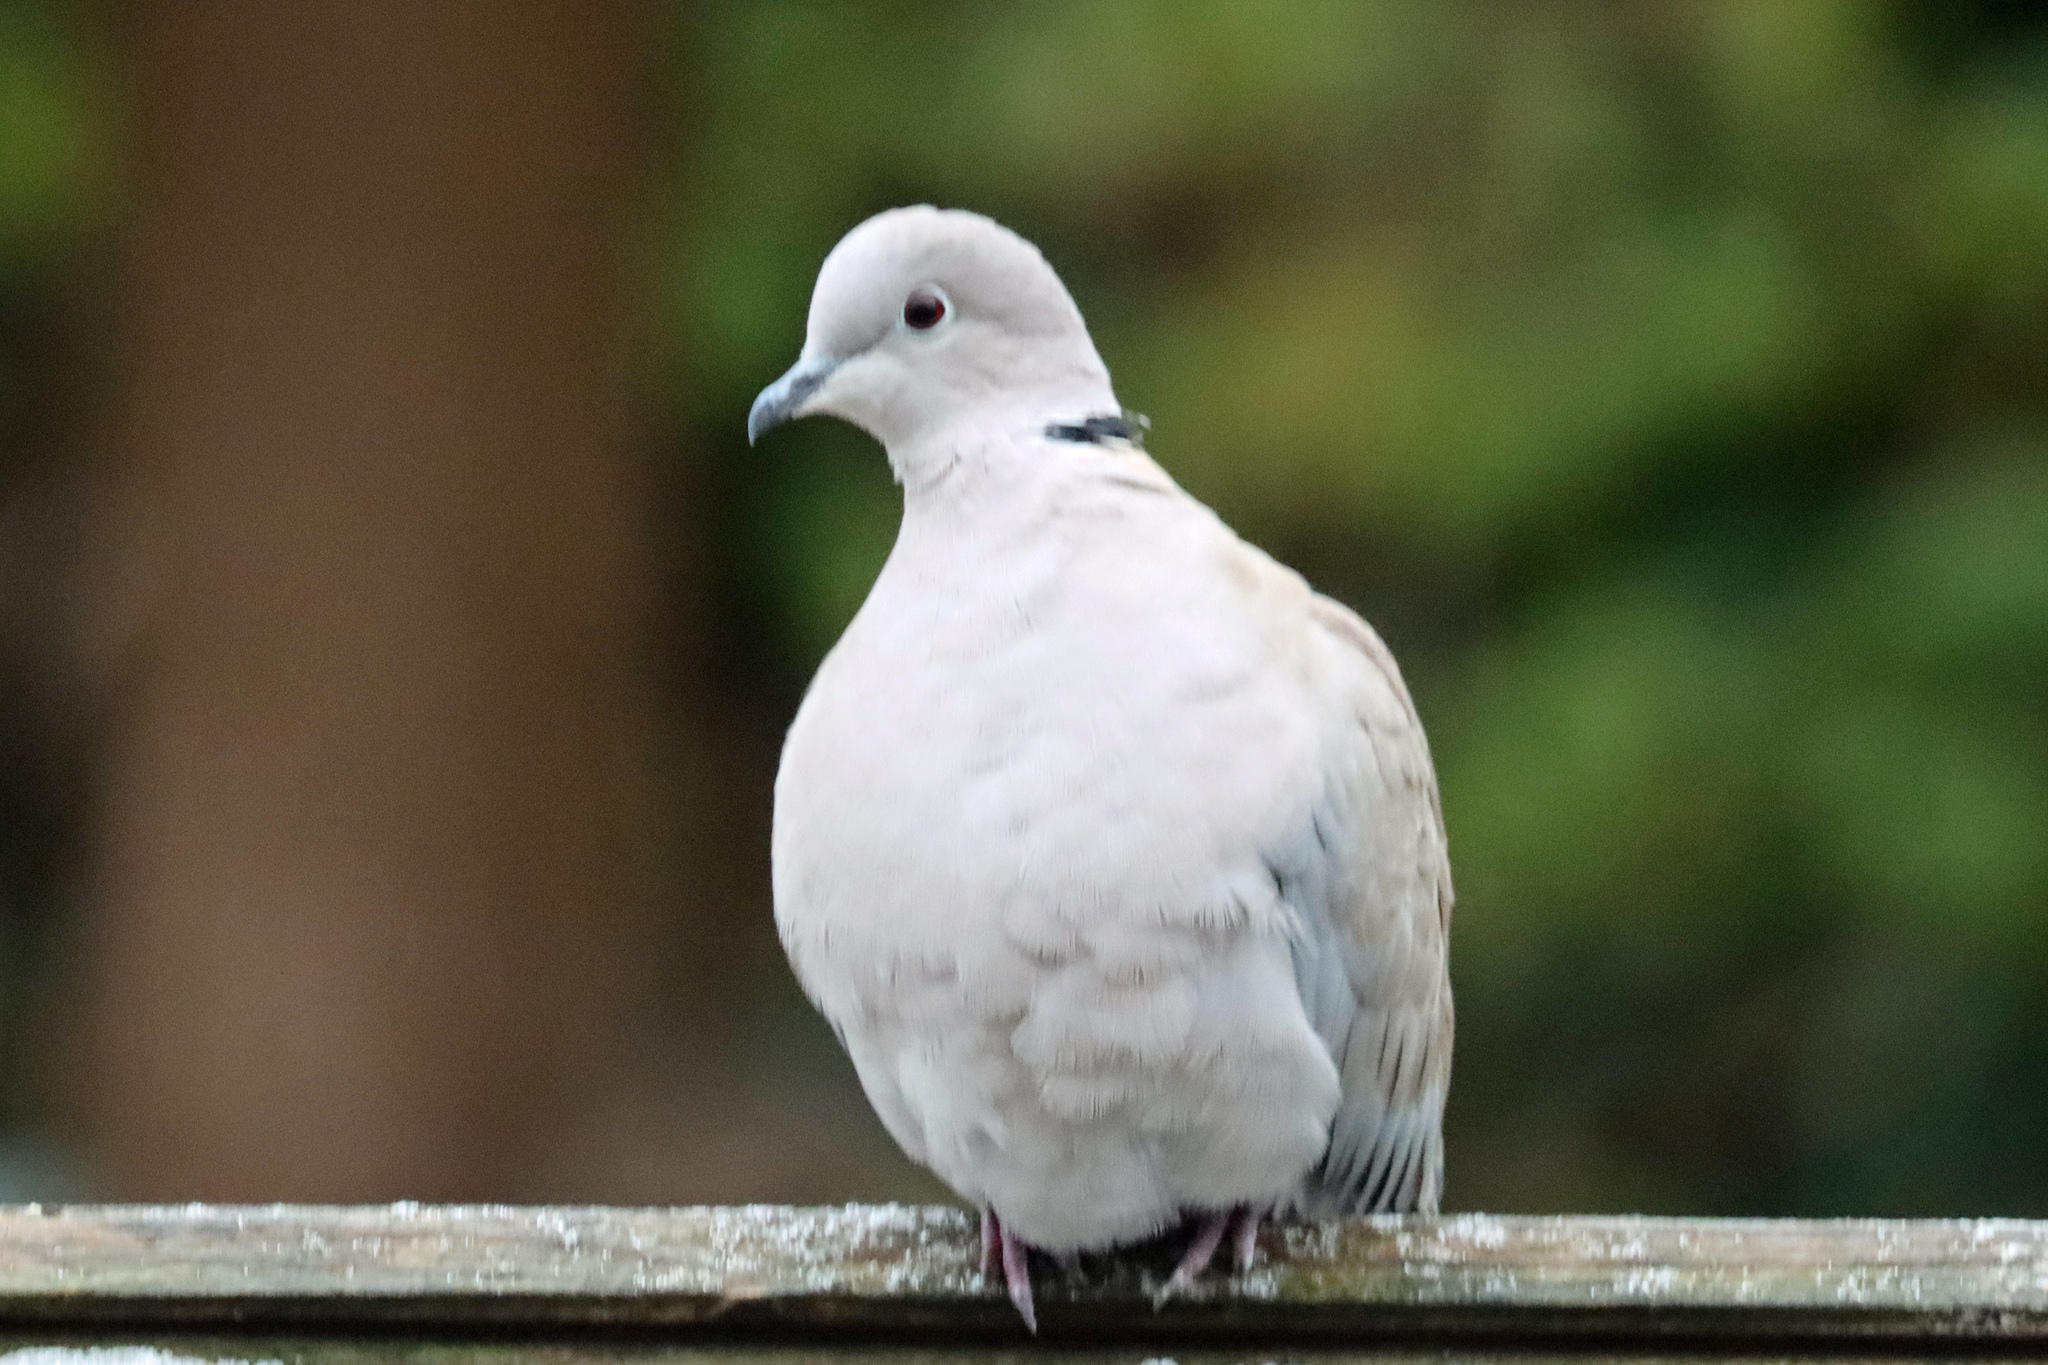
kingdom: Animalia
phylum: Chordata
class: Aves
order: Columbiformes
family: Columbidae
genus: Streptopelia
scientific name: Streptopelia decaocto
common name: Eurasian collared dove
